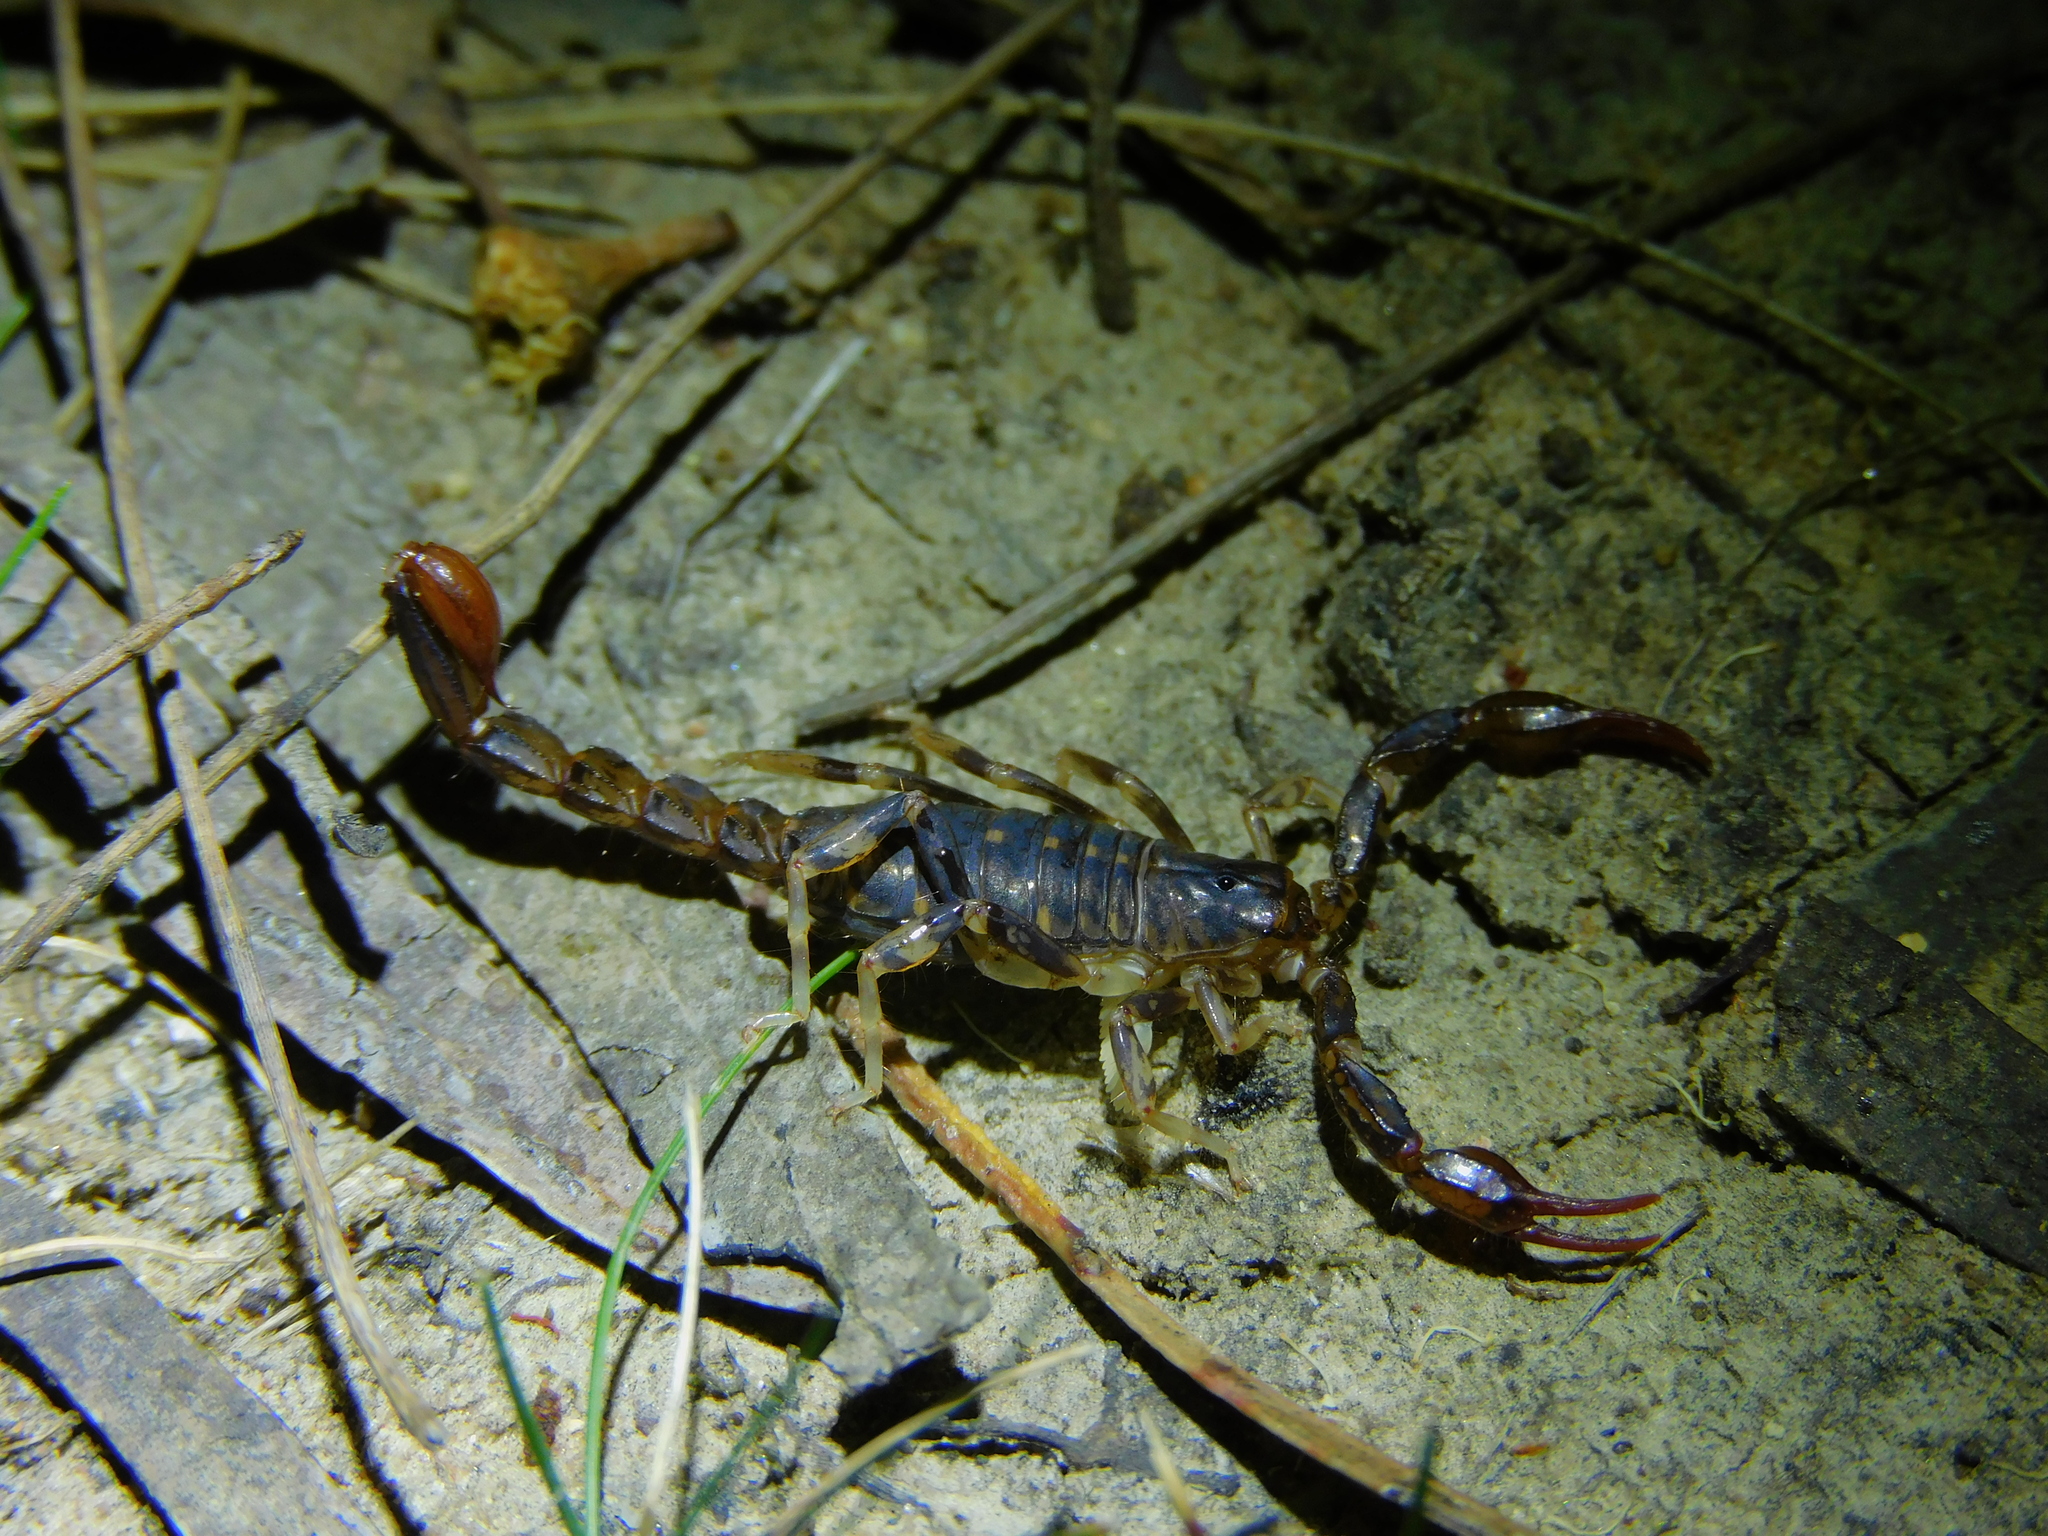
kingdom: Animalia
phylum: Arthropoda
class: Arachnida
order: Scorpiones
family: Bothriuridae
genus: Cercophonius
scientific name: Cercophonius squama
